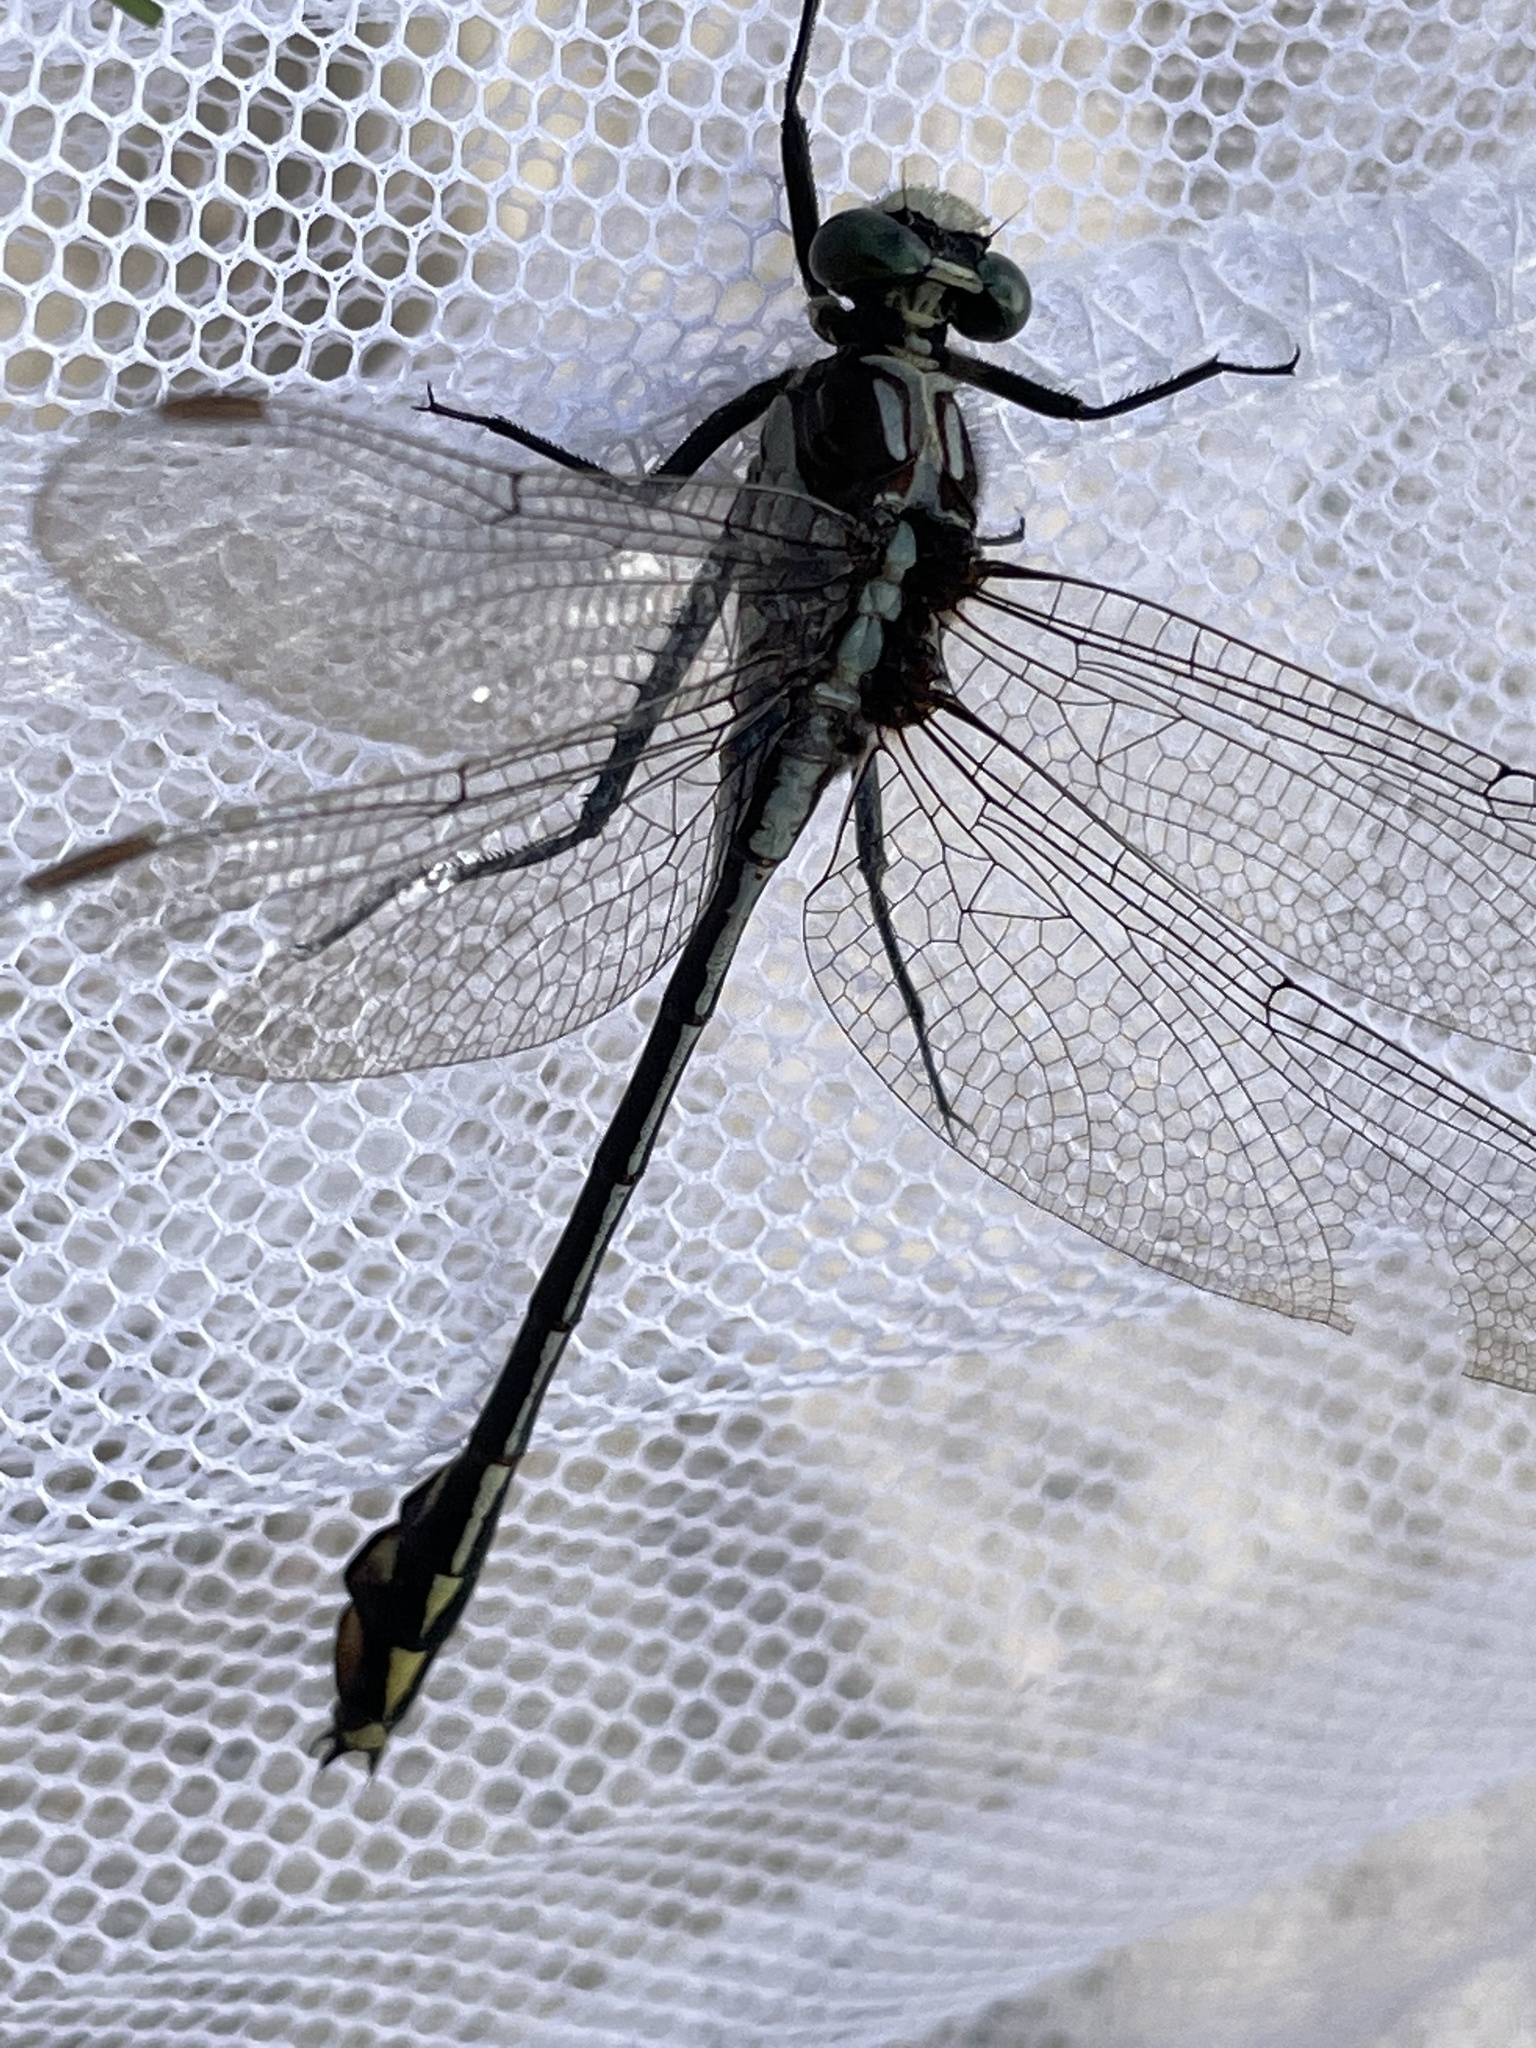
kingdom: Animalia
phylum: Arthropoda
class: Insecta
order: Odonata
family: Gomphidae
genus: Dromogomphus
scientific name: Dromogomphus spinosus
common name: Black-shouldered spinyleg
